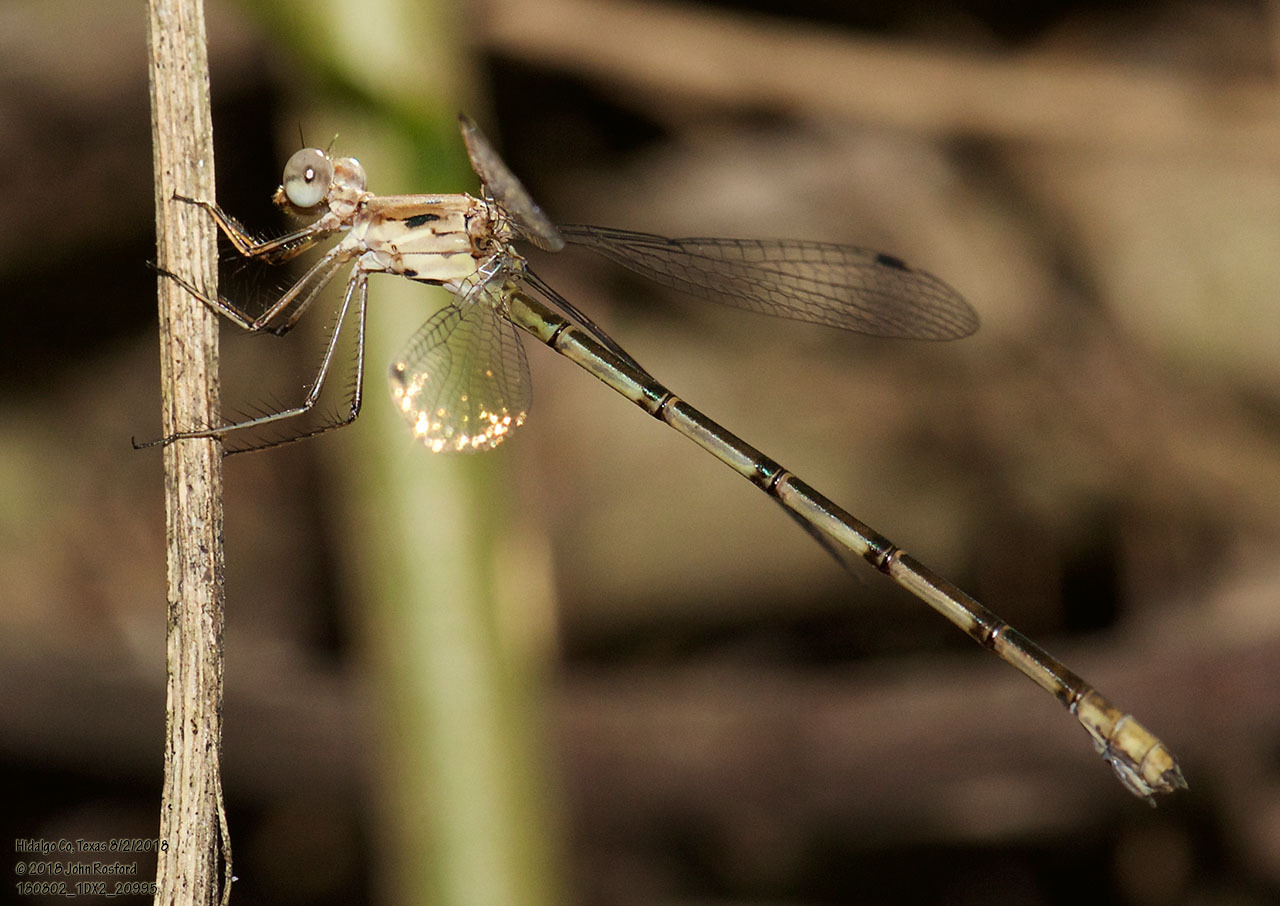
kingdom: Animalia
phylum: Arthropoda
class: Insecta
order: Odonata
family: Lestidae
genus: Lestes
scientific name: Lestes sigma
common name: Chalky spreadwing
